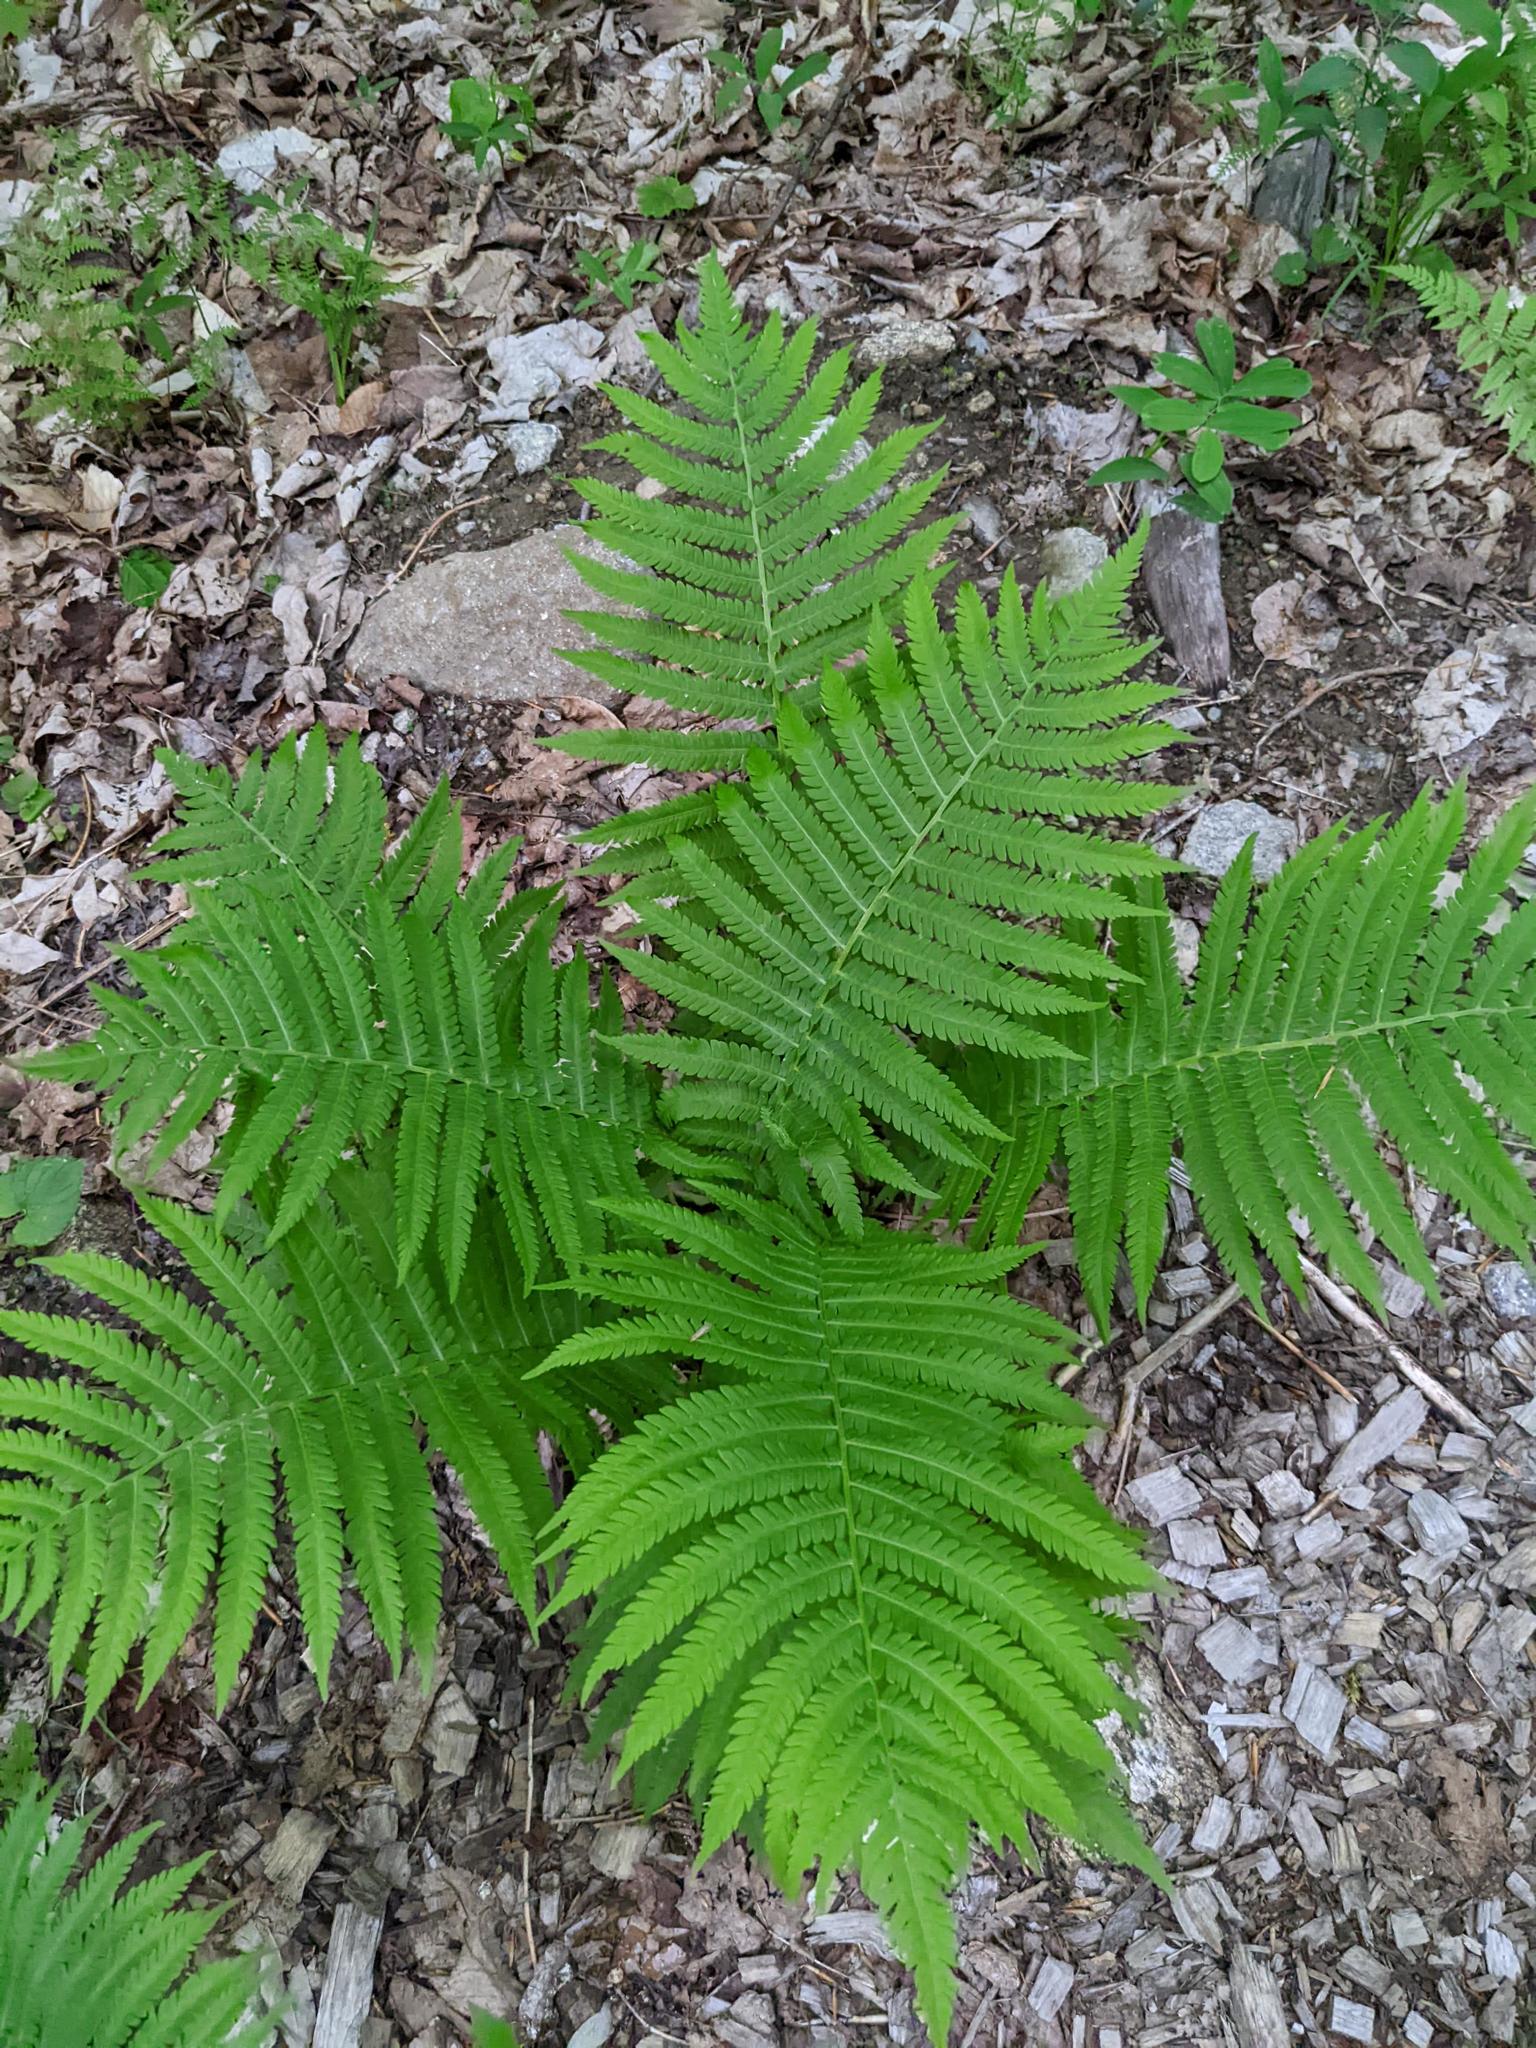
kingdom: Plantae
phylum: Tracheophyta
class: Polypodiopsida
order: Polypodiales
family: Onocleaceae
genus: Matteuccia
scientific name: Matteuccia struthiopteris
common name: Ostrich fern
